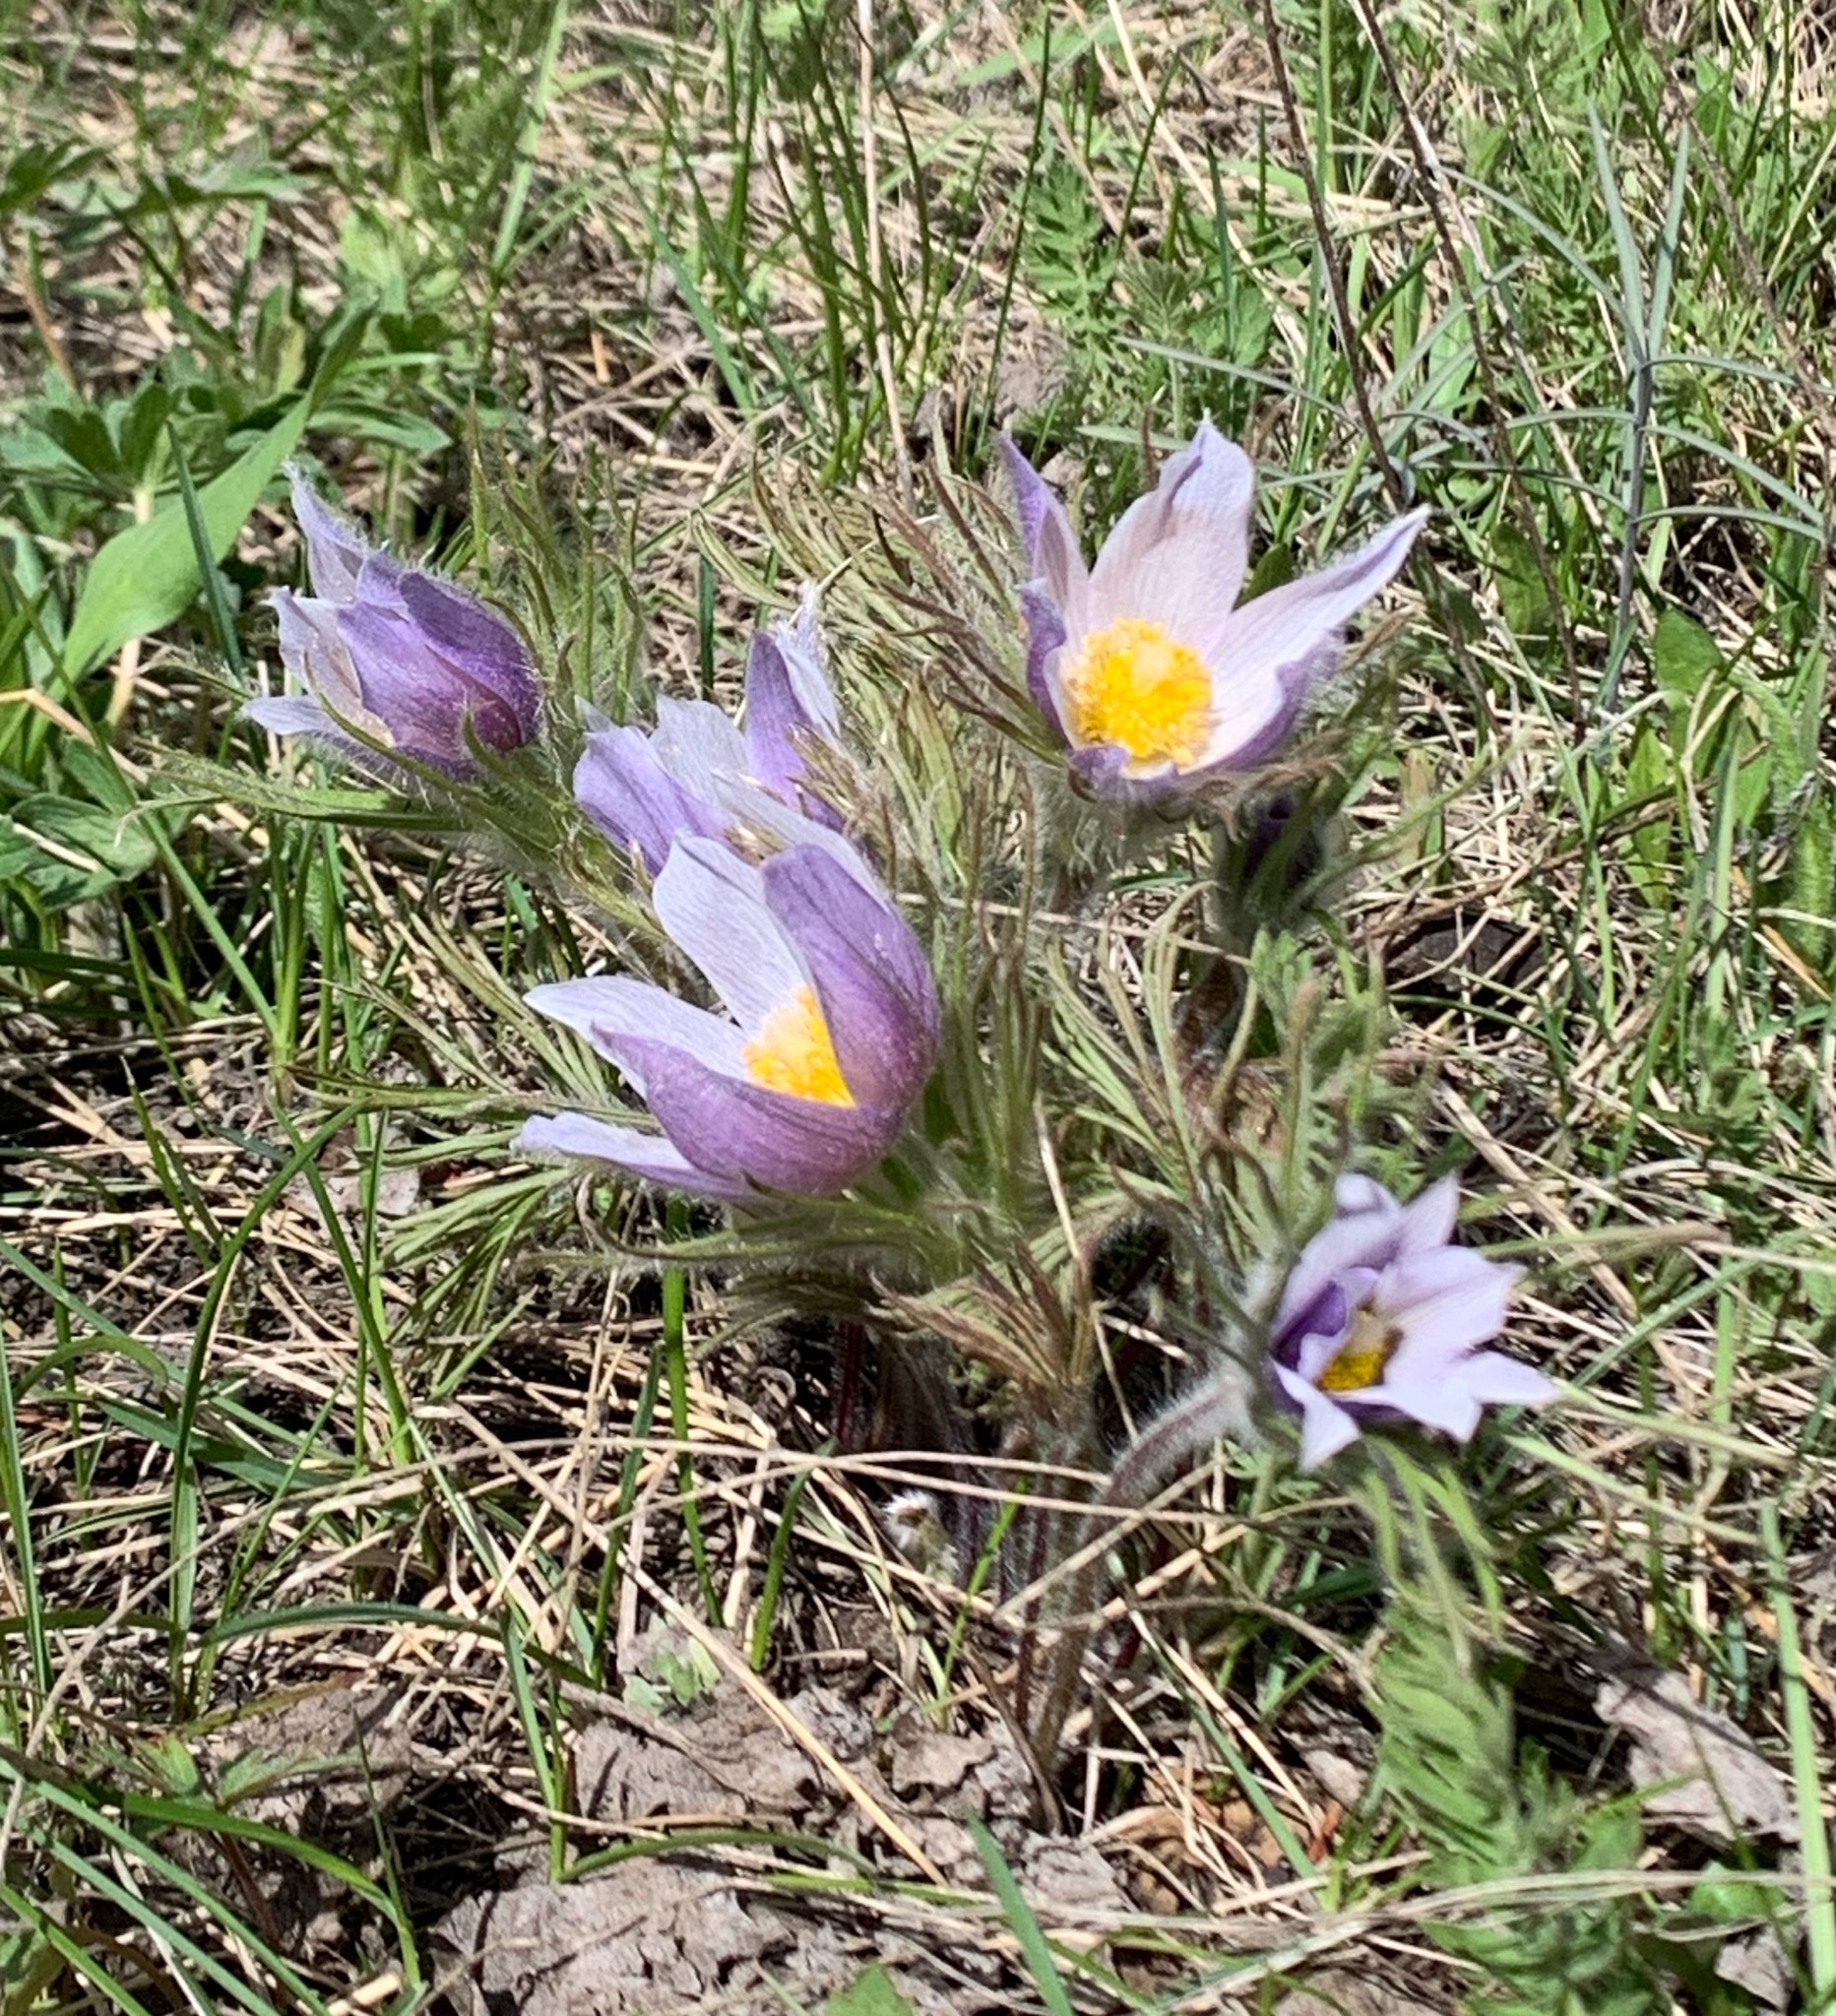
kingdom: Plantae
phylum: Tracheophyta
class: Magnoliopsida
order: Ranunculales
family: Ranunculaceae
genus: Pulsatilla
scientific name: Pulsatilla nuttalliana
